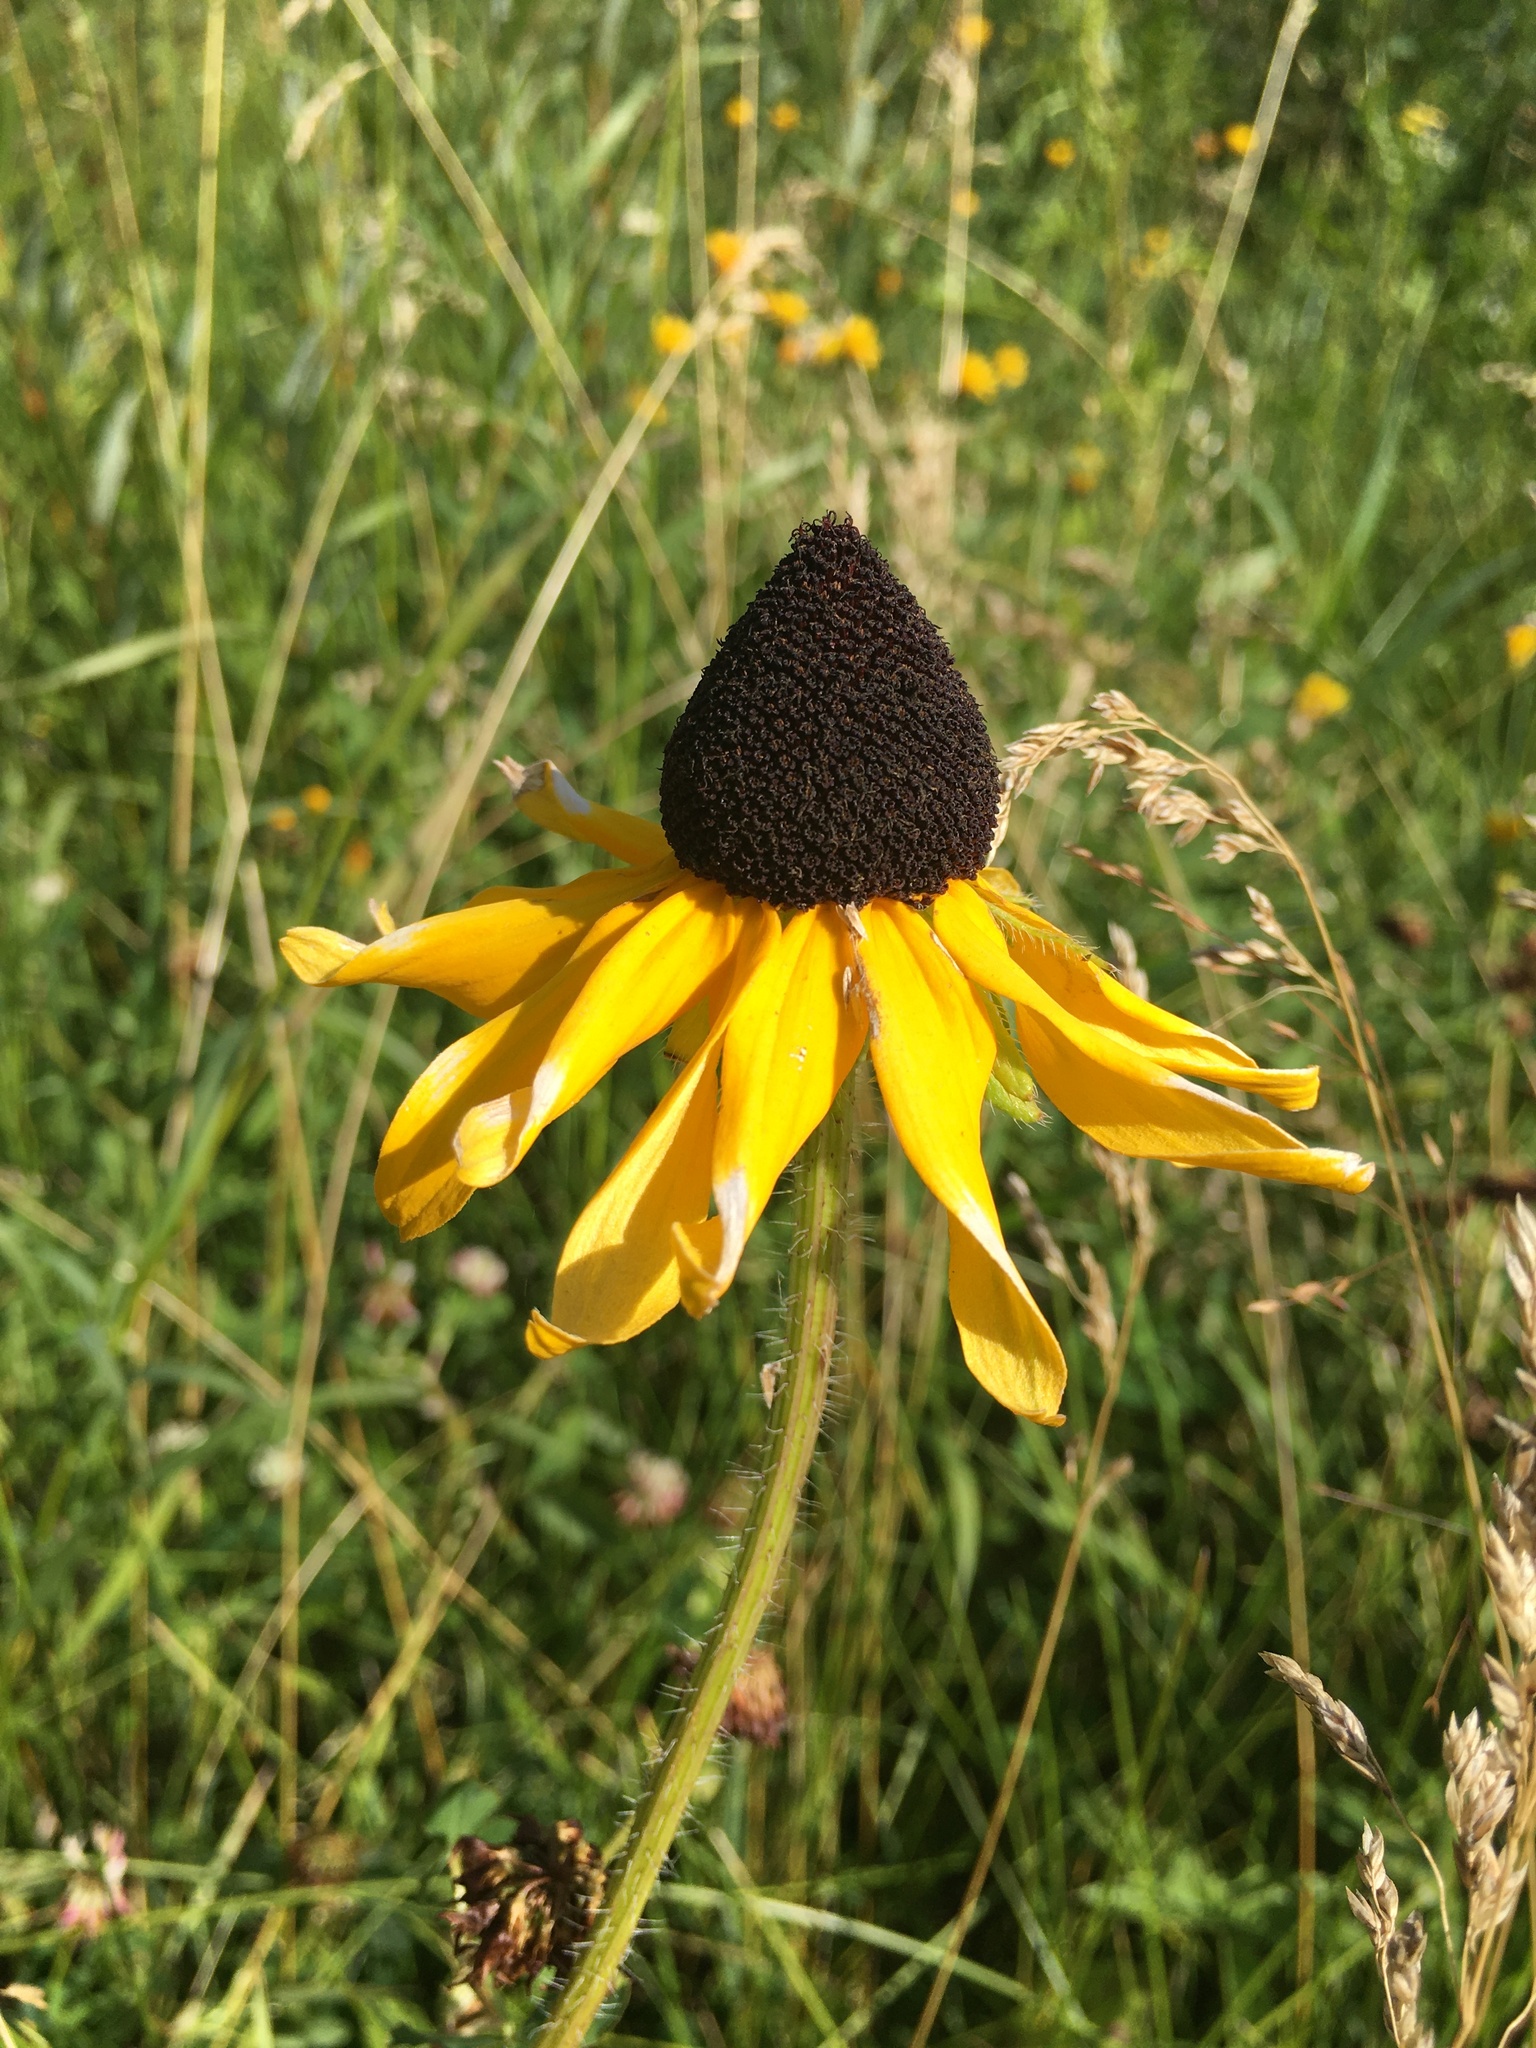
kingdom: Plantae
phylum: Tracheophyta
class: Magnoliopsida
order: Asterales
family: Asteraceae
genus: Rudbeckia
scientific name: Rudbeckia hirta
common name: Black-eyed-susan
